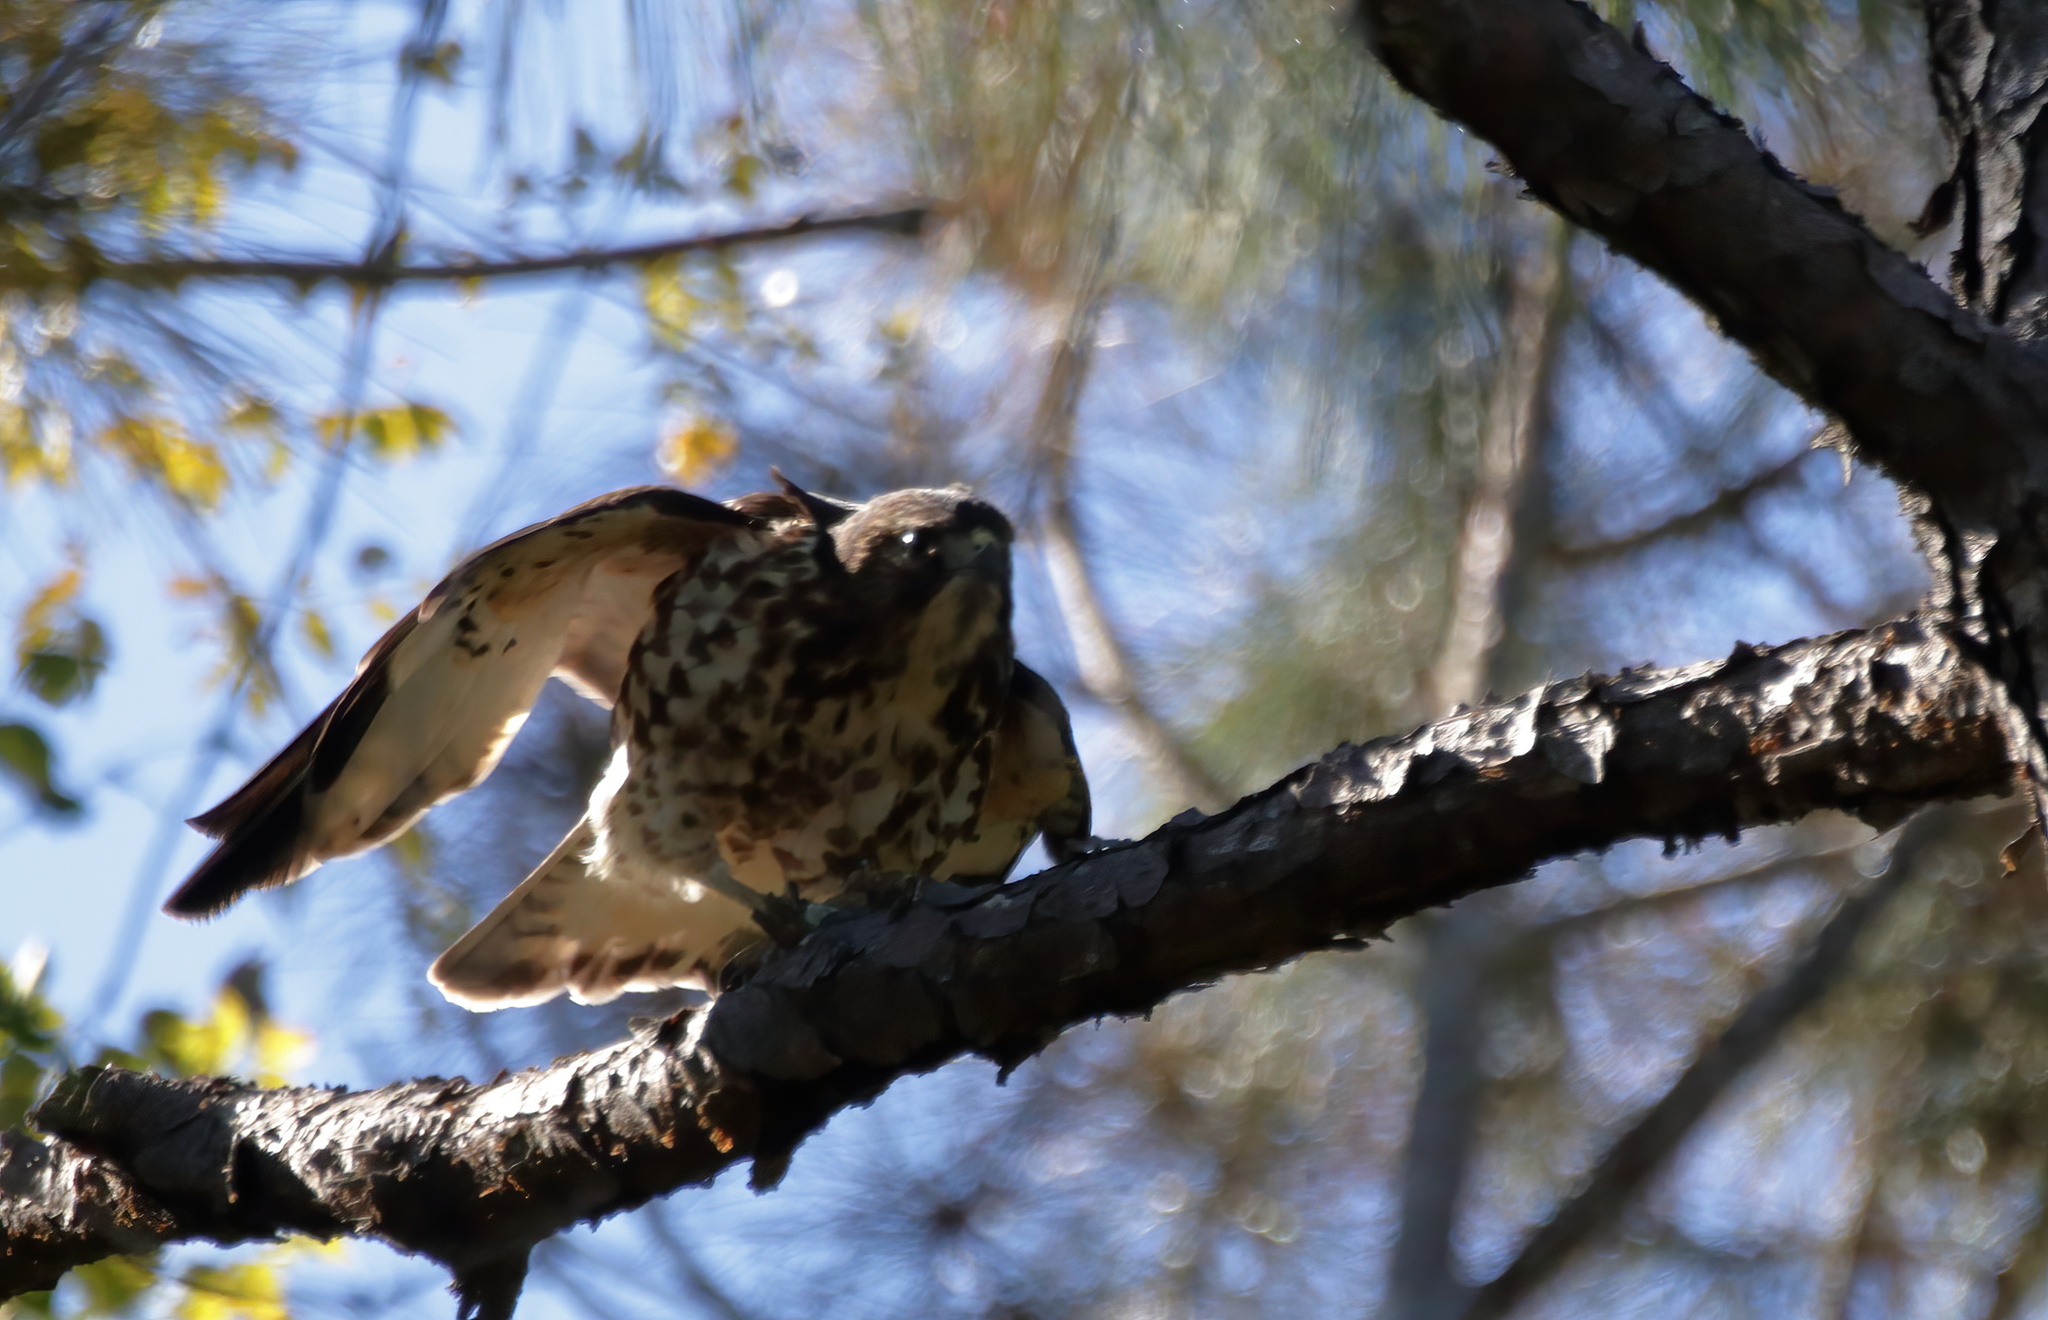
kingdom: Animalia
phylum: Chordata
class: Aves
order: Accipitriformes
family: Accipitridae
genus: Buteo
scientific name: Buteo platypterus
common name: Broad-winged hawk
